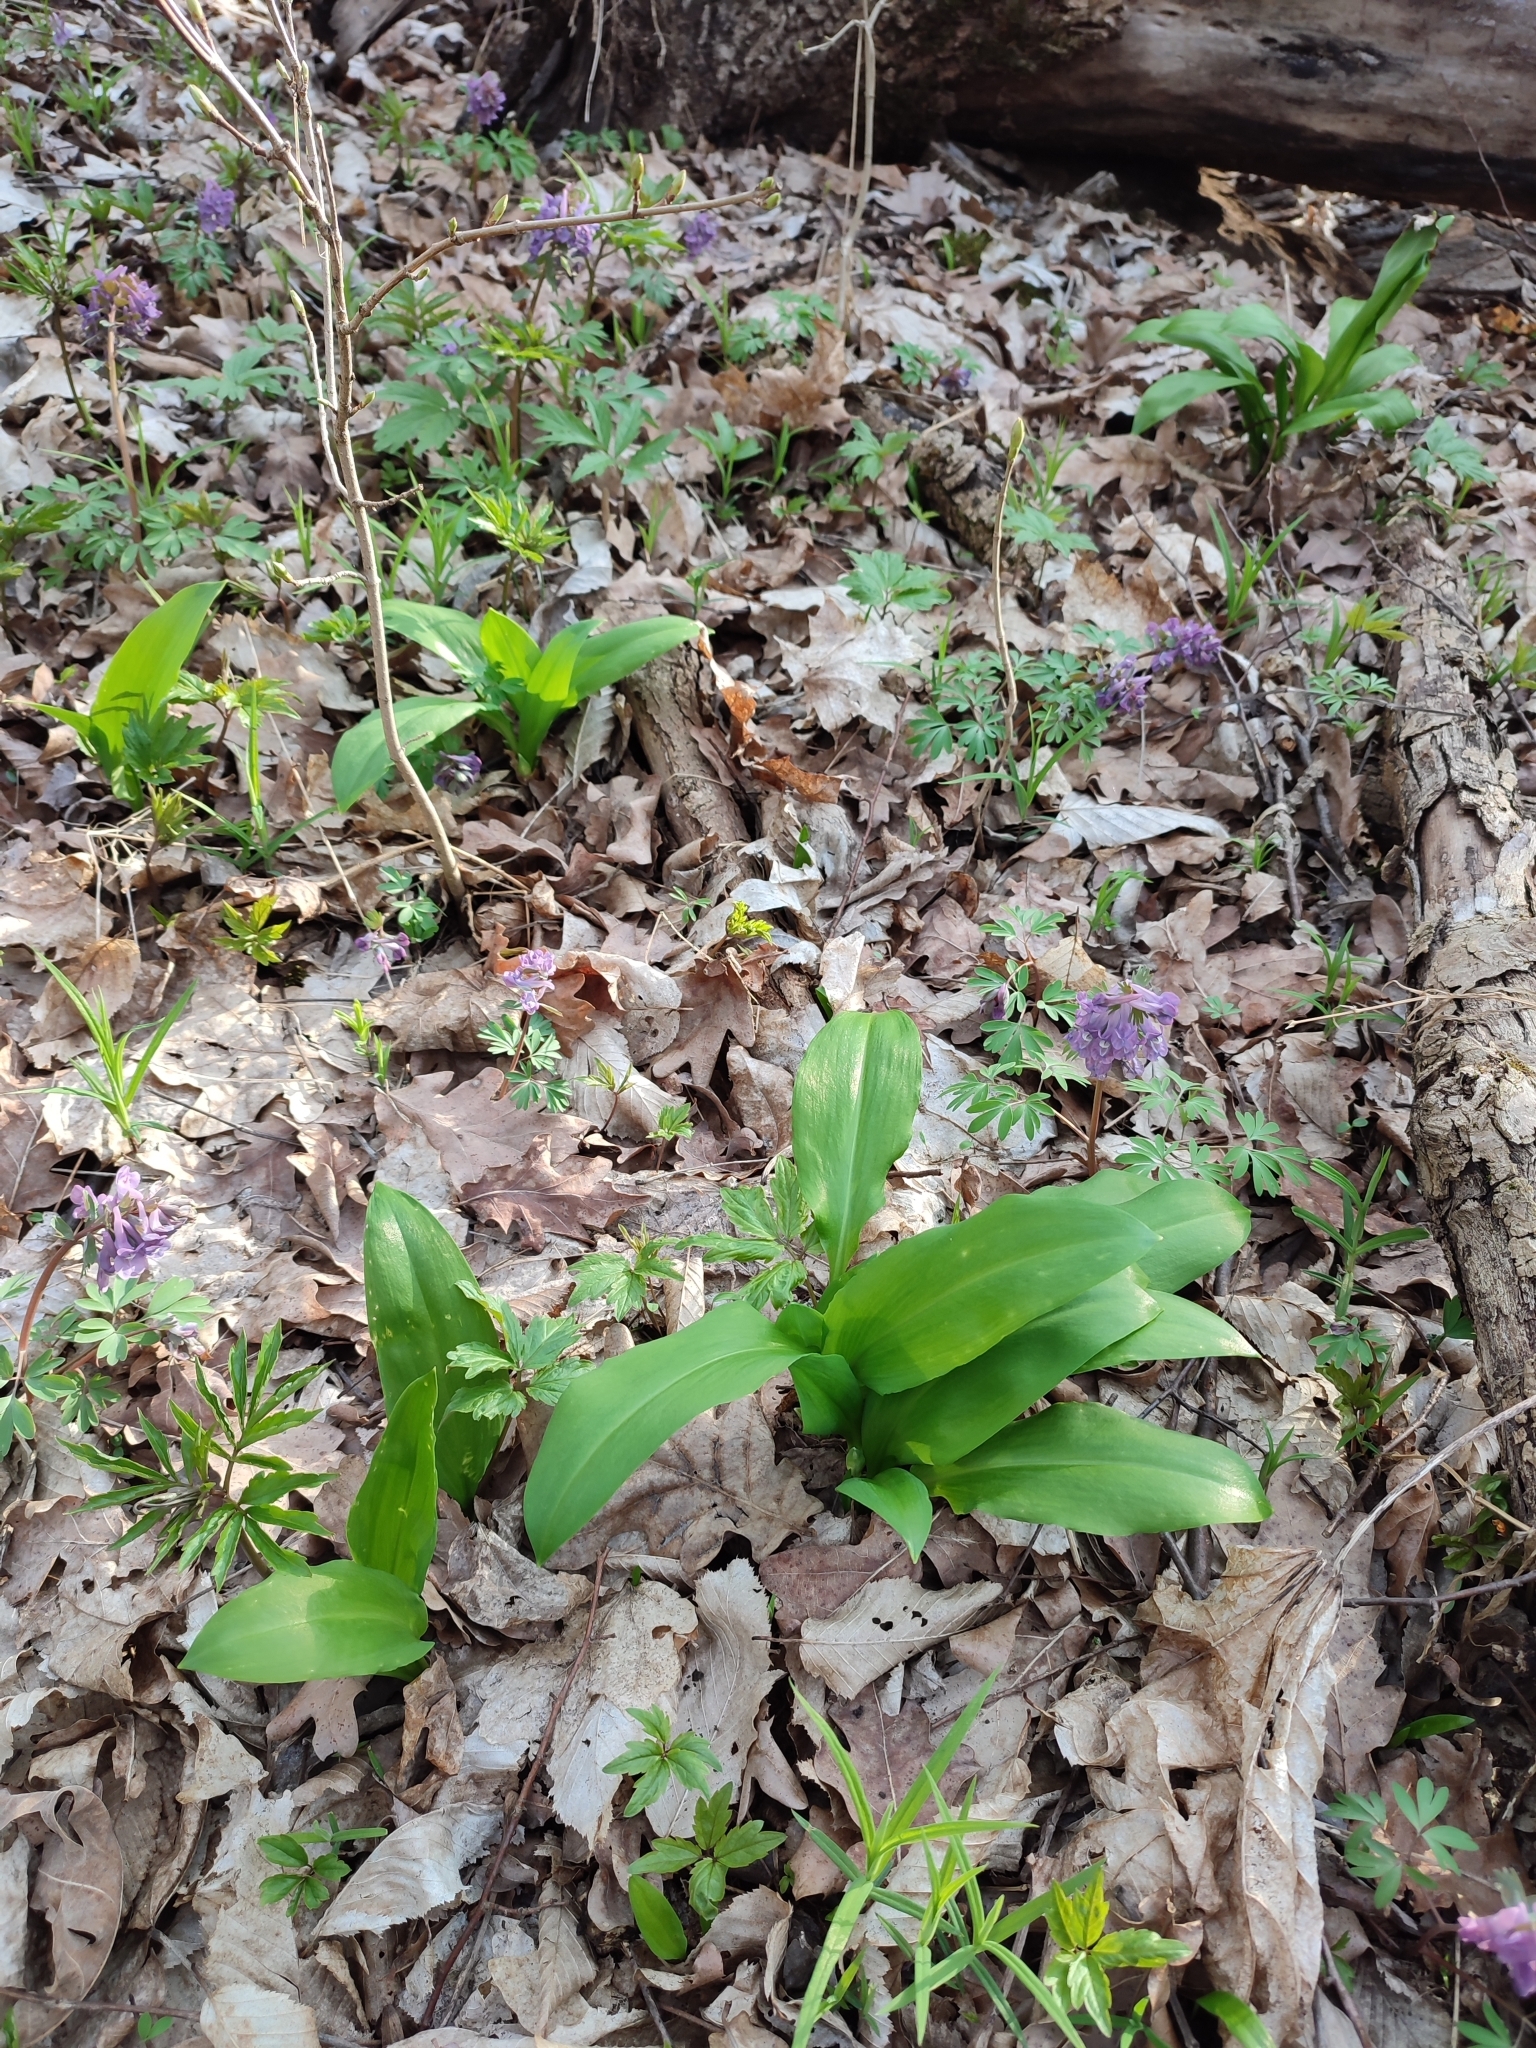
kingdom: Plantae
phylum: Tracheophyta
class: Liliopsida
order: Asparagales
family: Amaryllidaceae
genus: Allium
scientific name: Allium ursinum
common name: Ramsons
